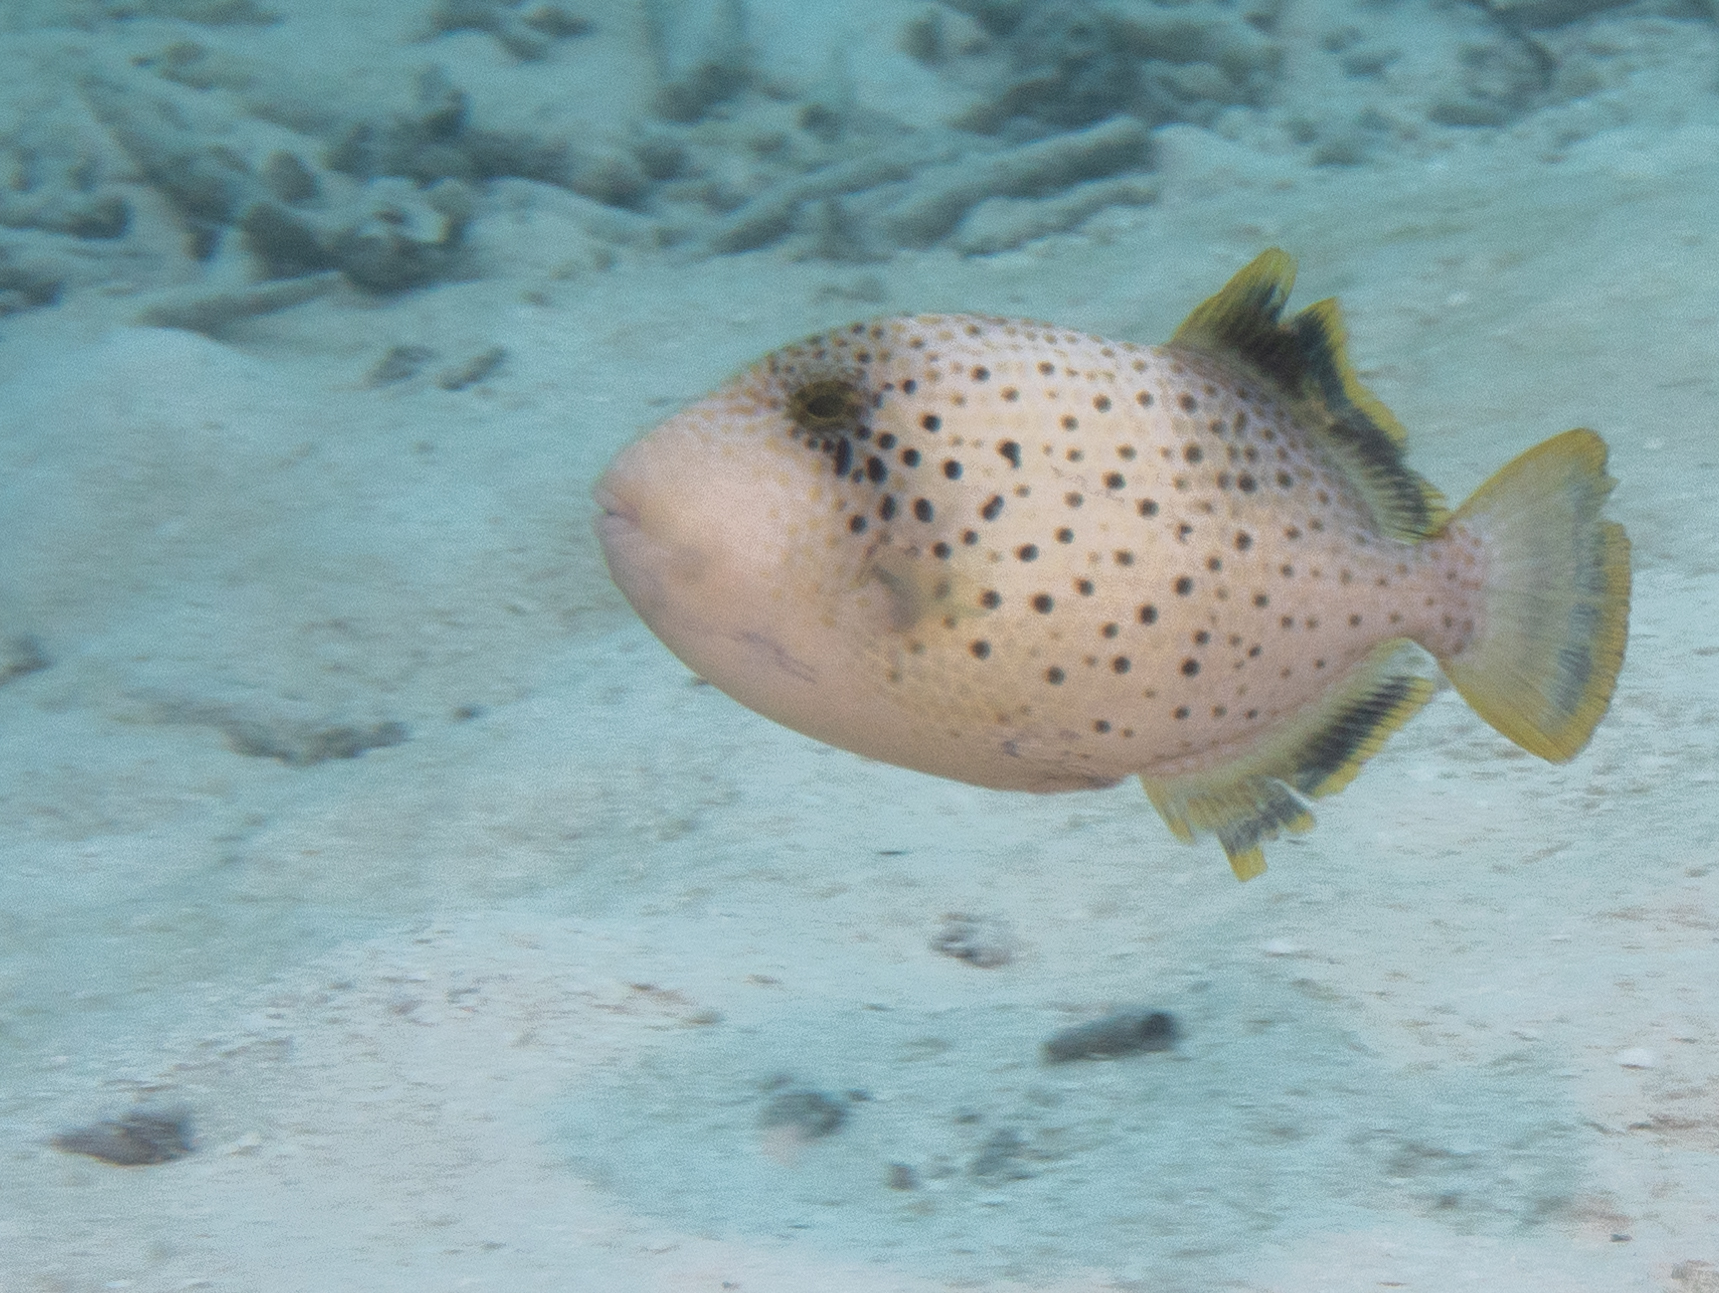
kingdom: Animalia
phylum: Chordata
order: Tetraodontiformes
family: Balistidae
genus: Pseudobalistes
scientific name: Pseudobalistes flavimarginatus
